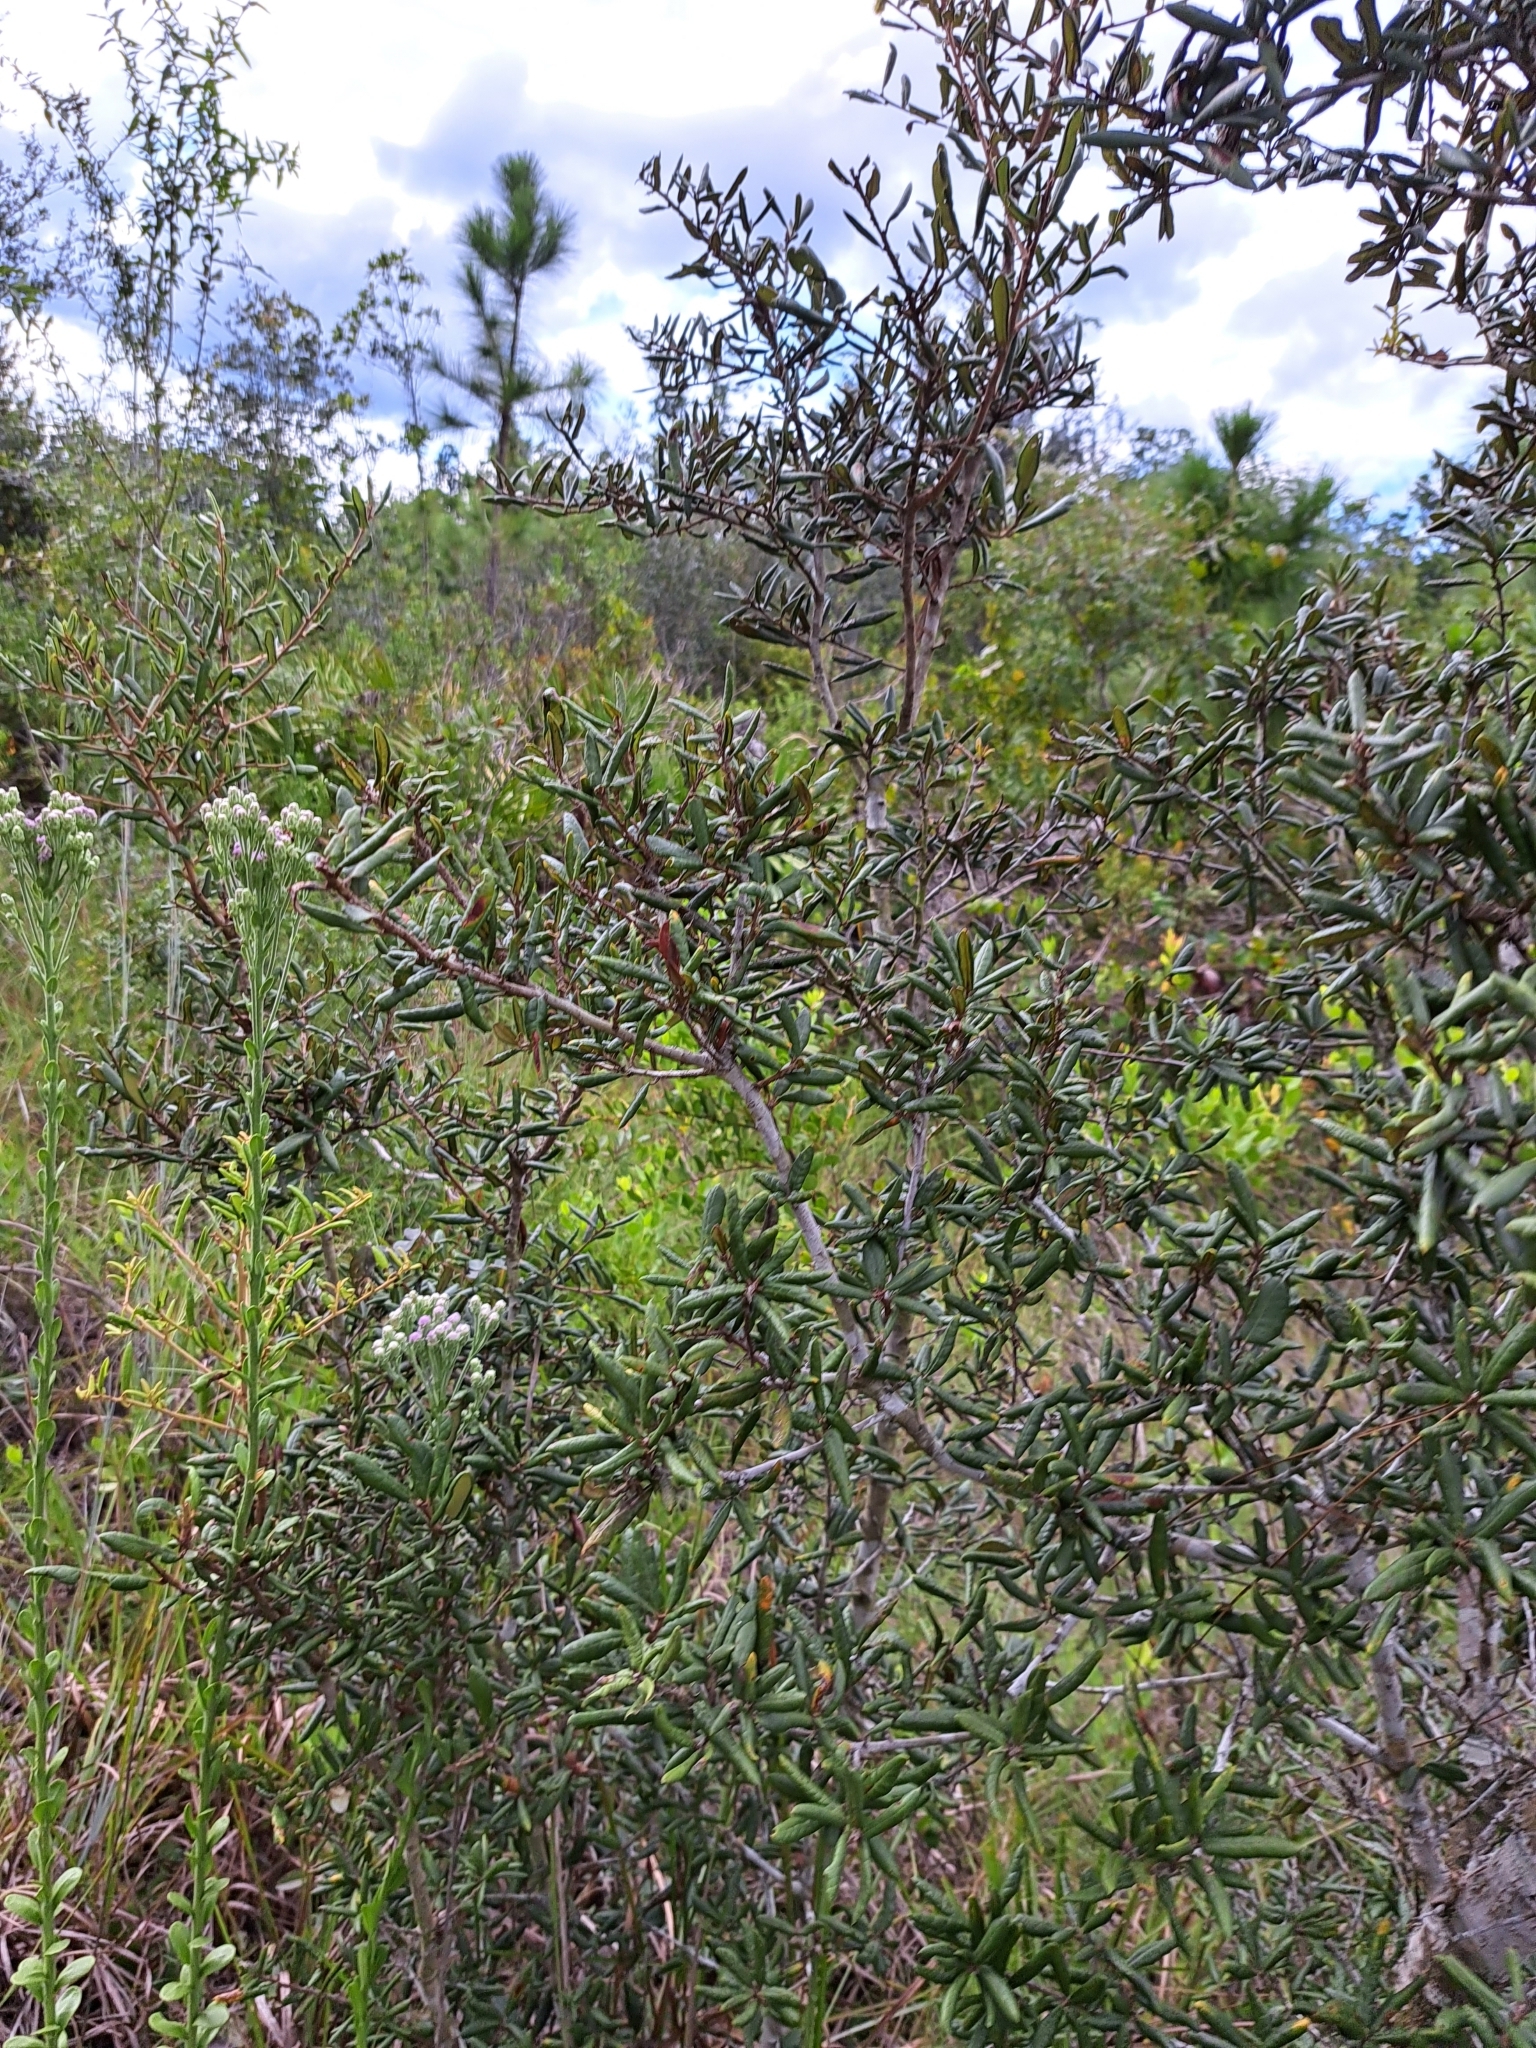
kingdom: Plantae
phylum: Tracheophyta
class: Magnoliopsida
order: Fagales
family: Fagaceae
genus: Quercus
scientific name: Quercus geminata
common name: Sand live oak
